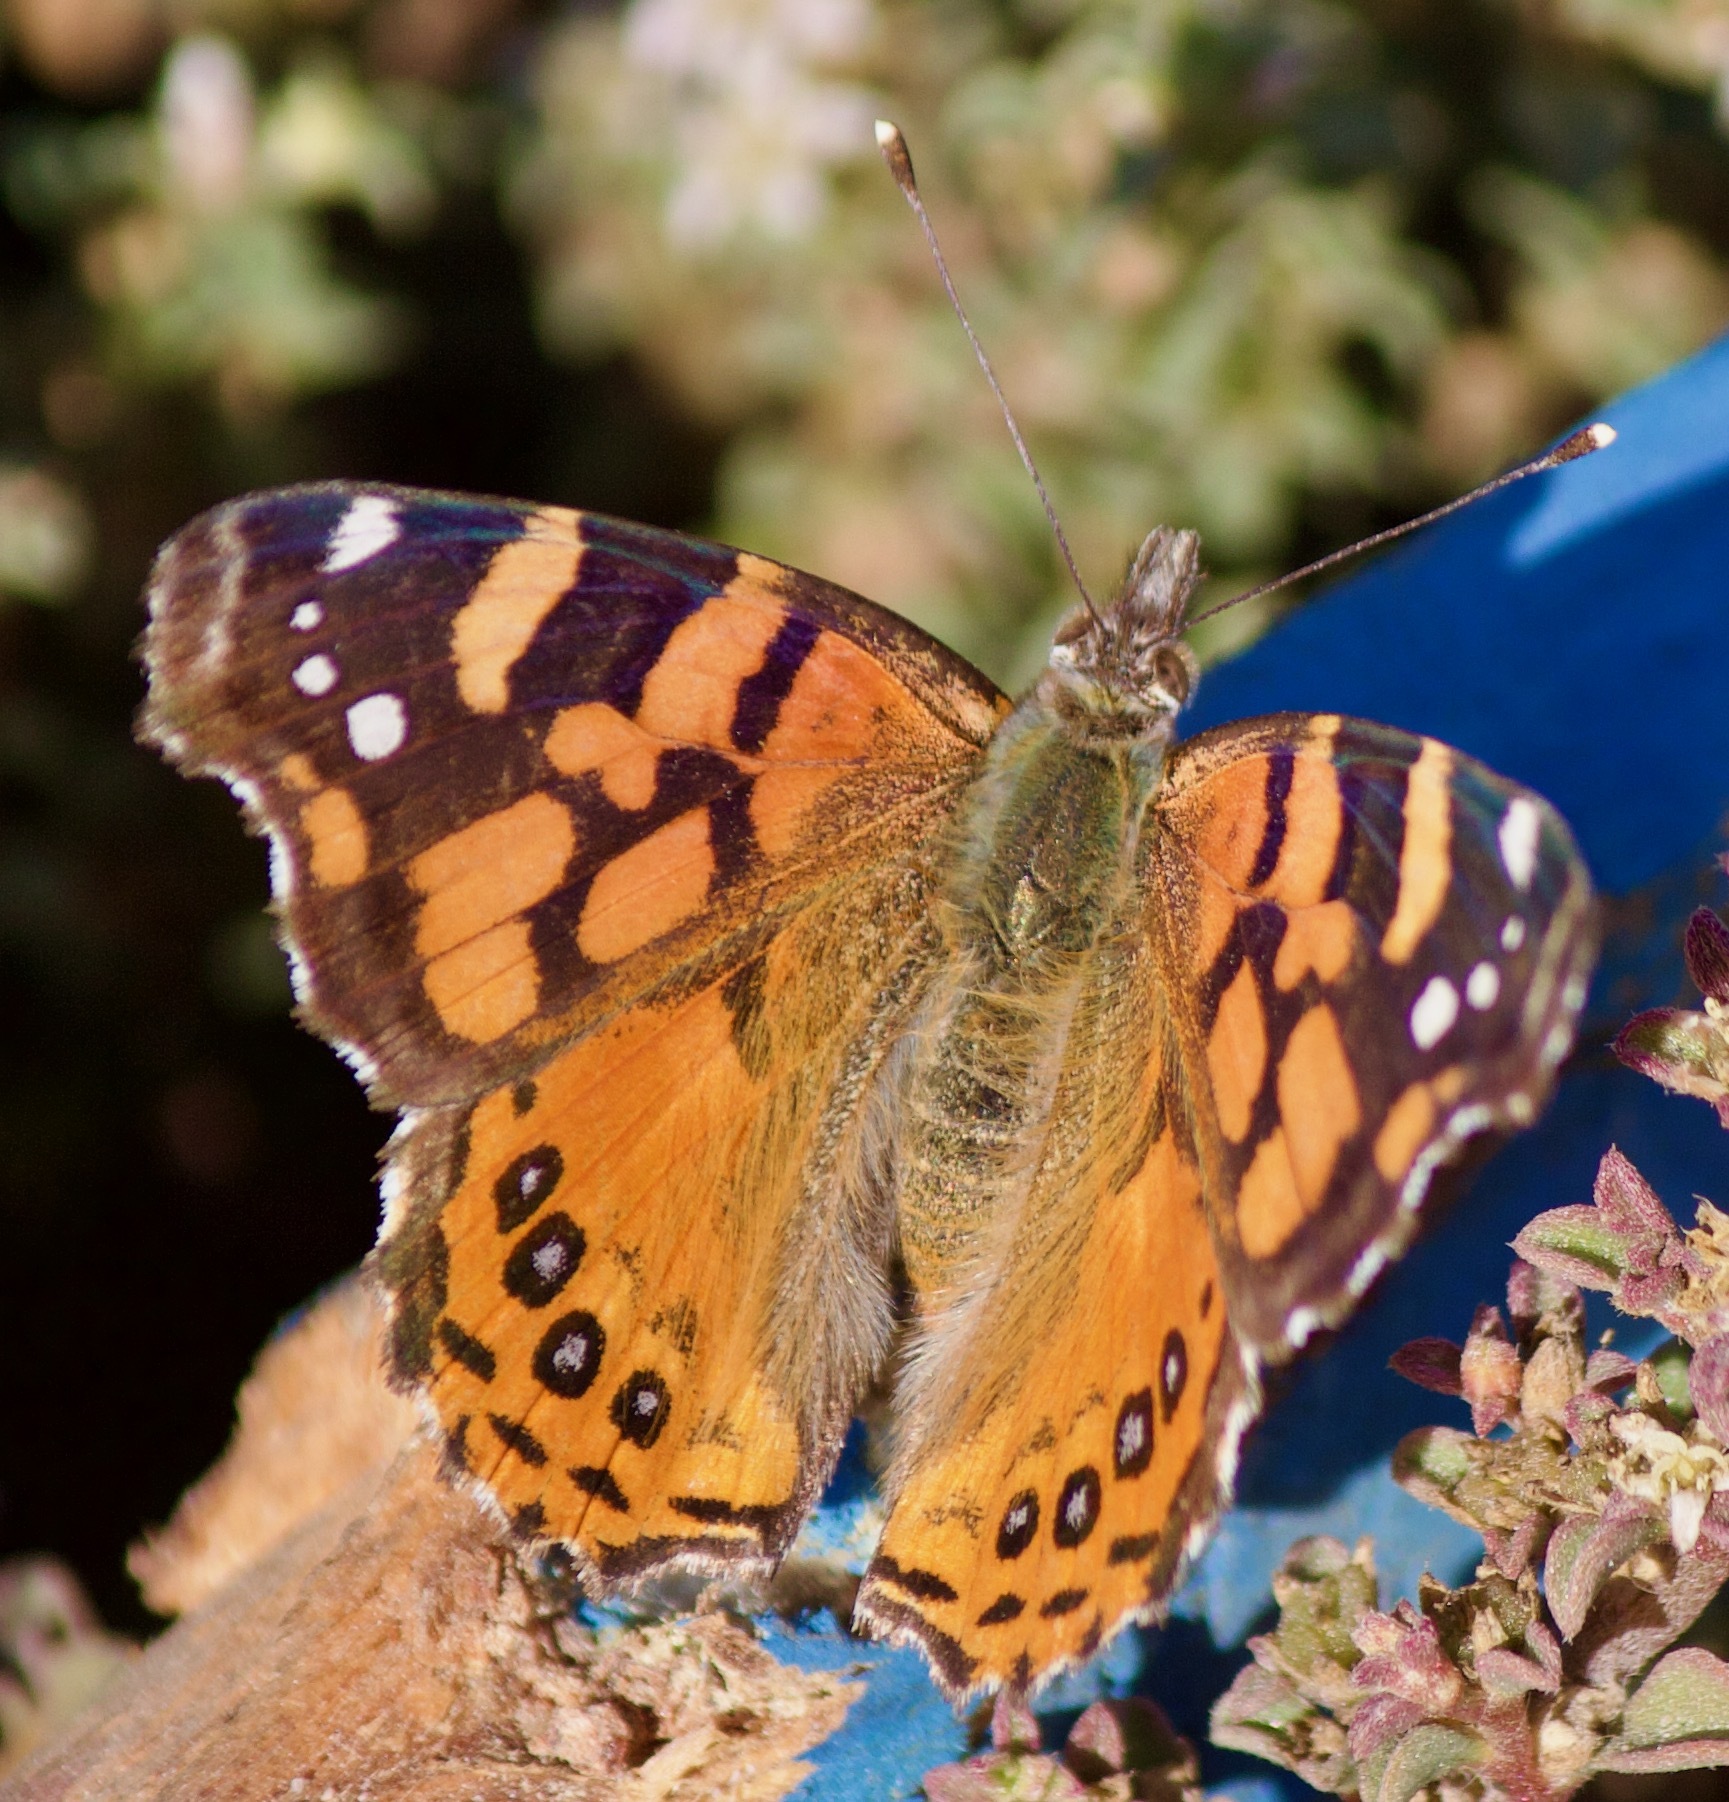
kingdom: Animalia
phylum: Arthropoda
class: Insecta
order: Lepidoptera
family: Nymphalidae
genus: Vanessa
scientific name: Vanessa carye
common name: Subtropical lady
